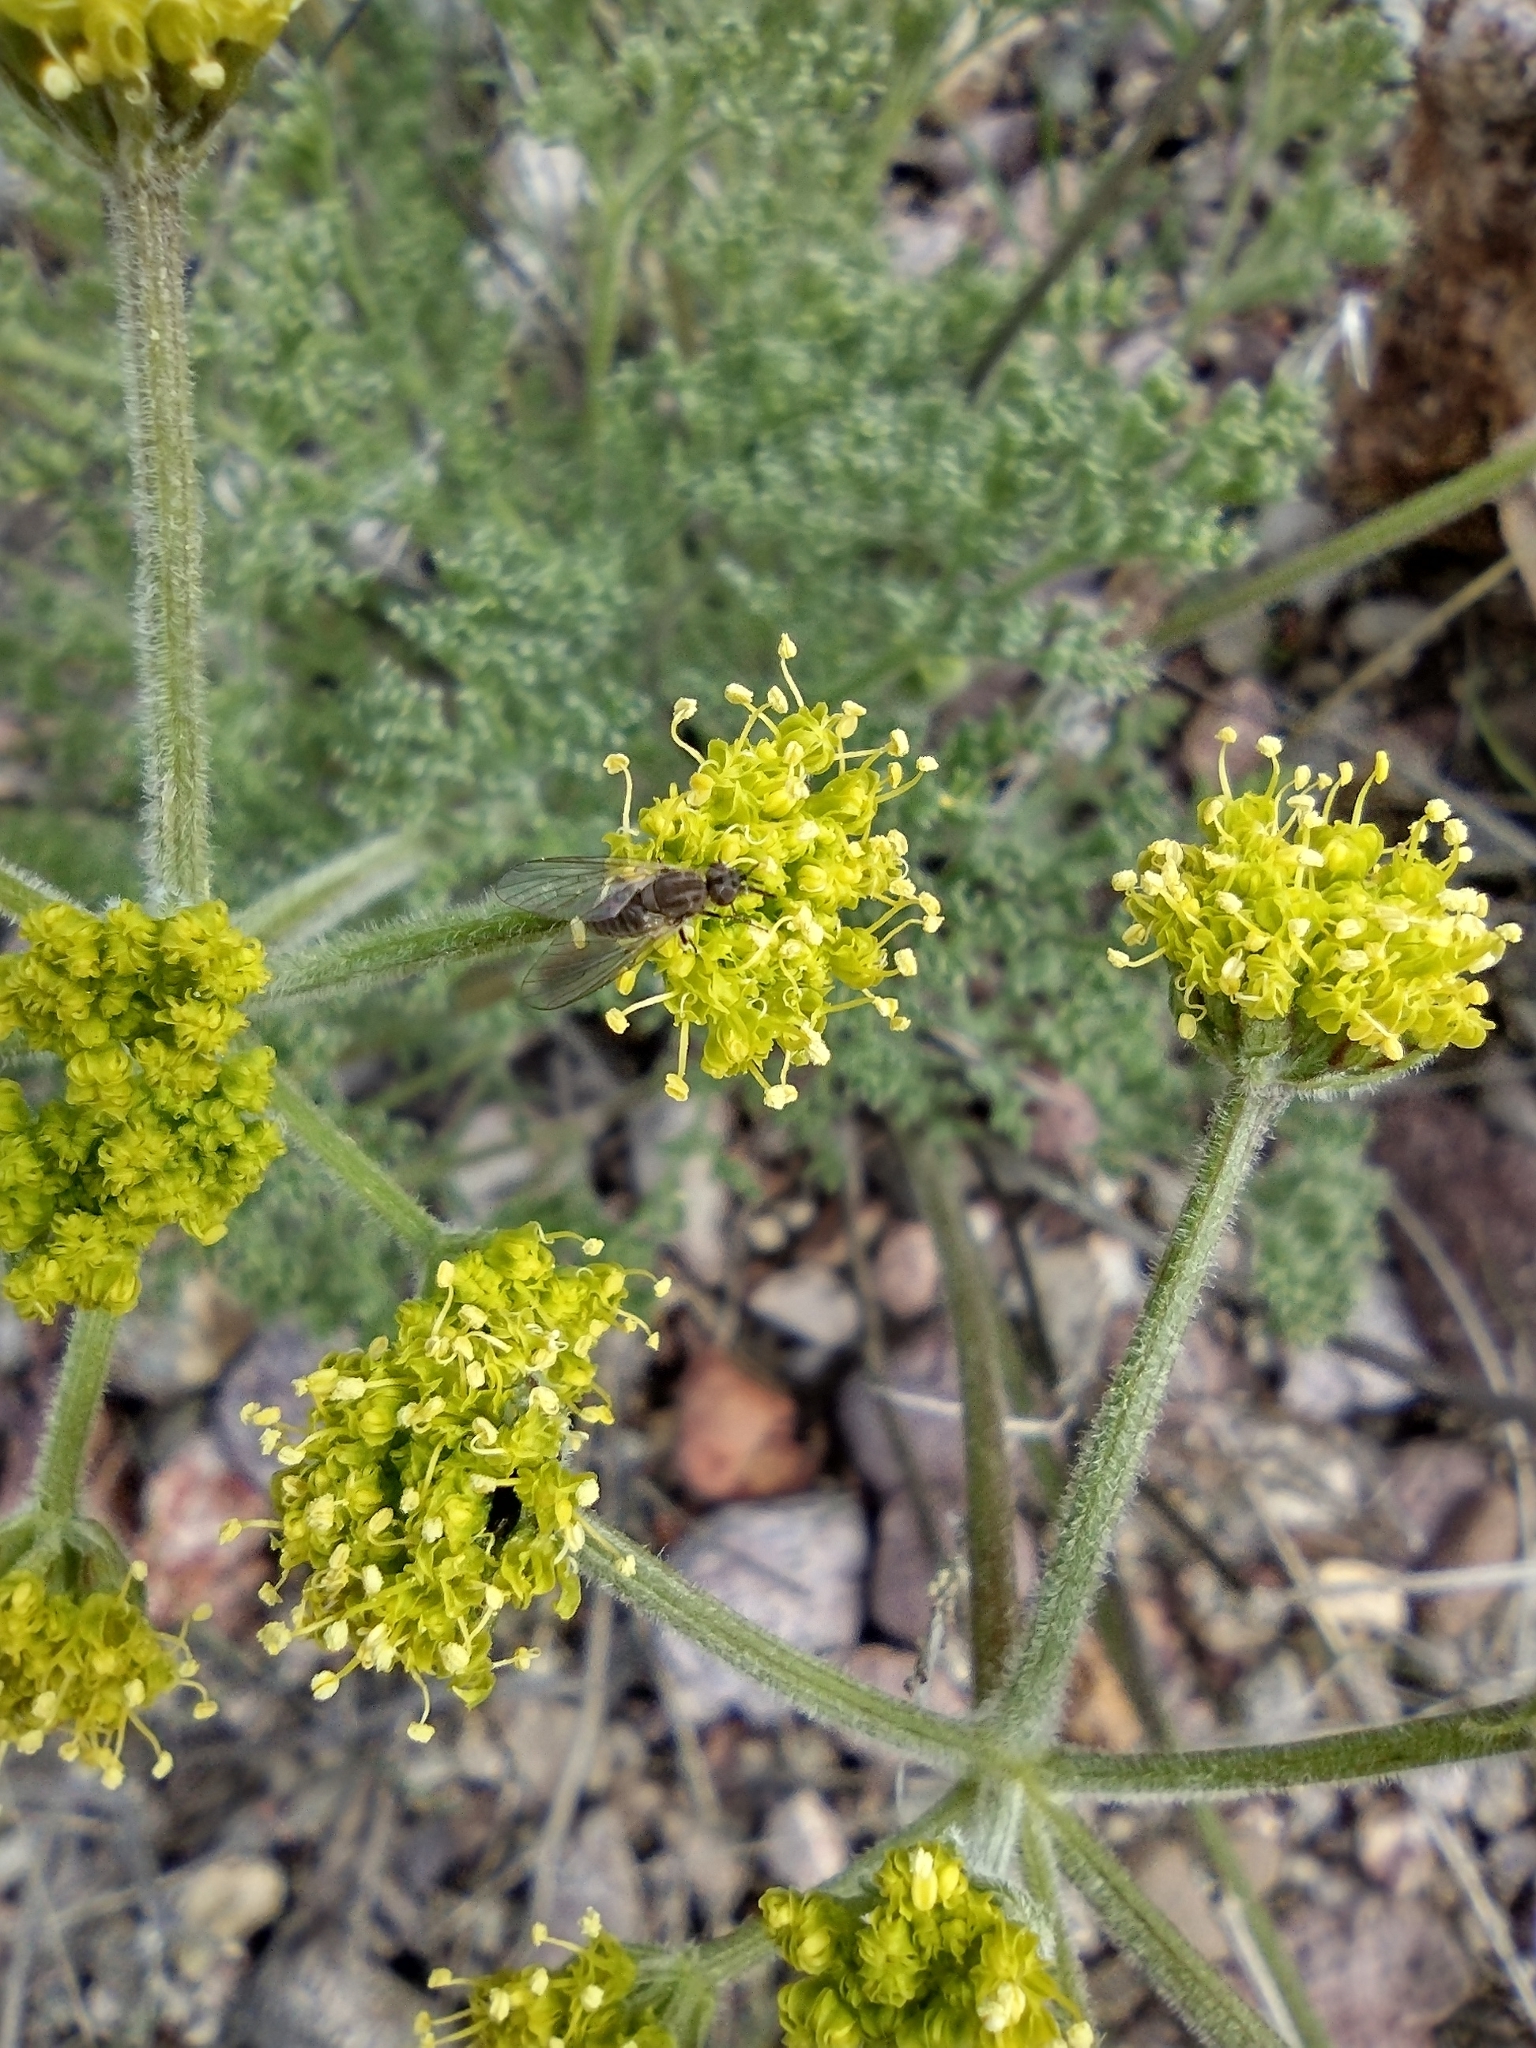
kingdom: Plantae
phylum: Tracheophyta
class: Magnoliopsida
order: Apiales
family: Apiaceae
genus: Lomatium
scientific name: Lomatium mohavense
